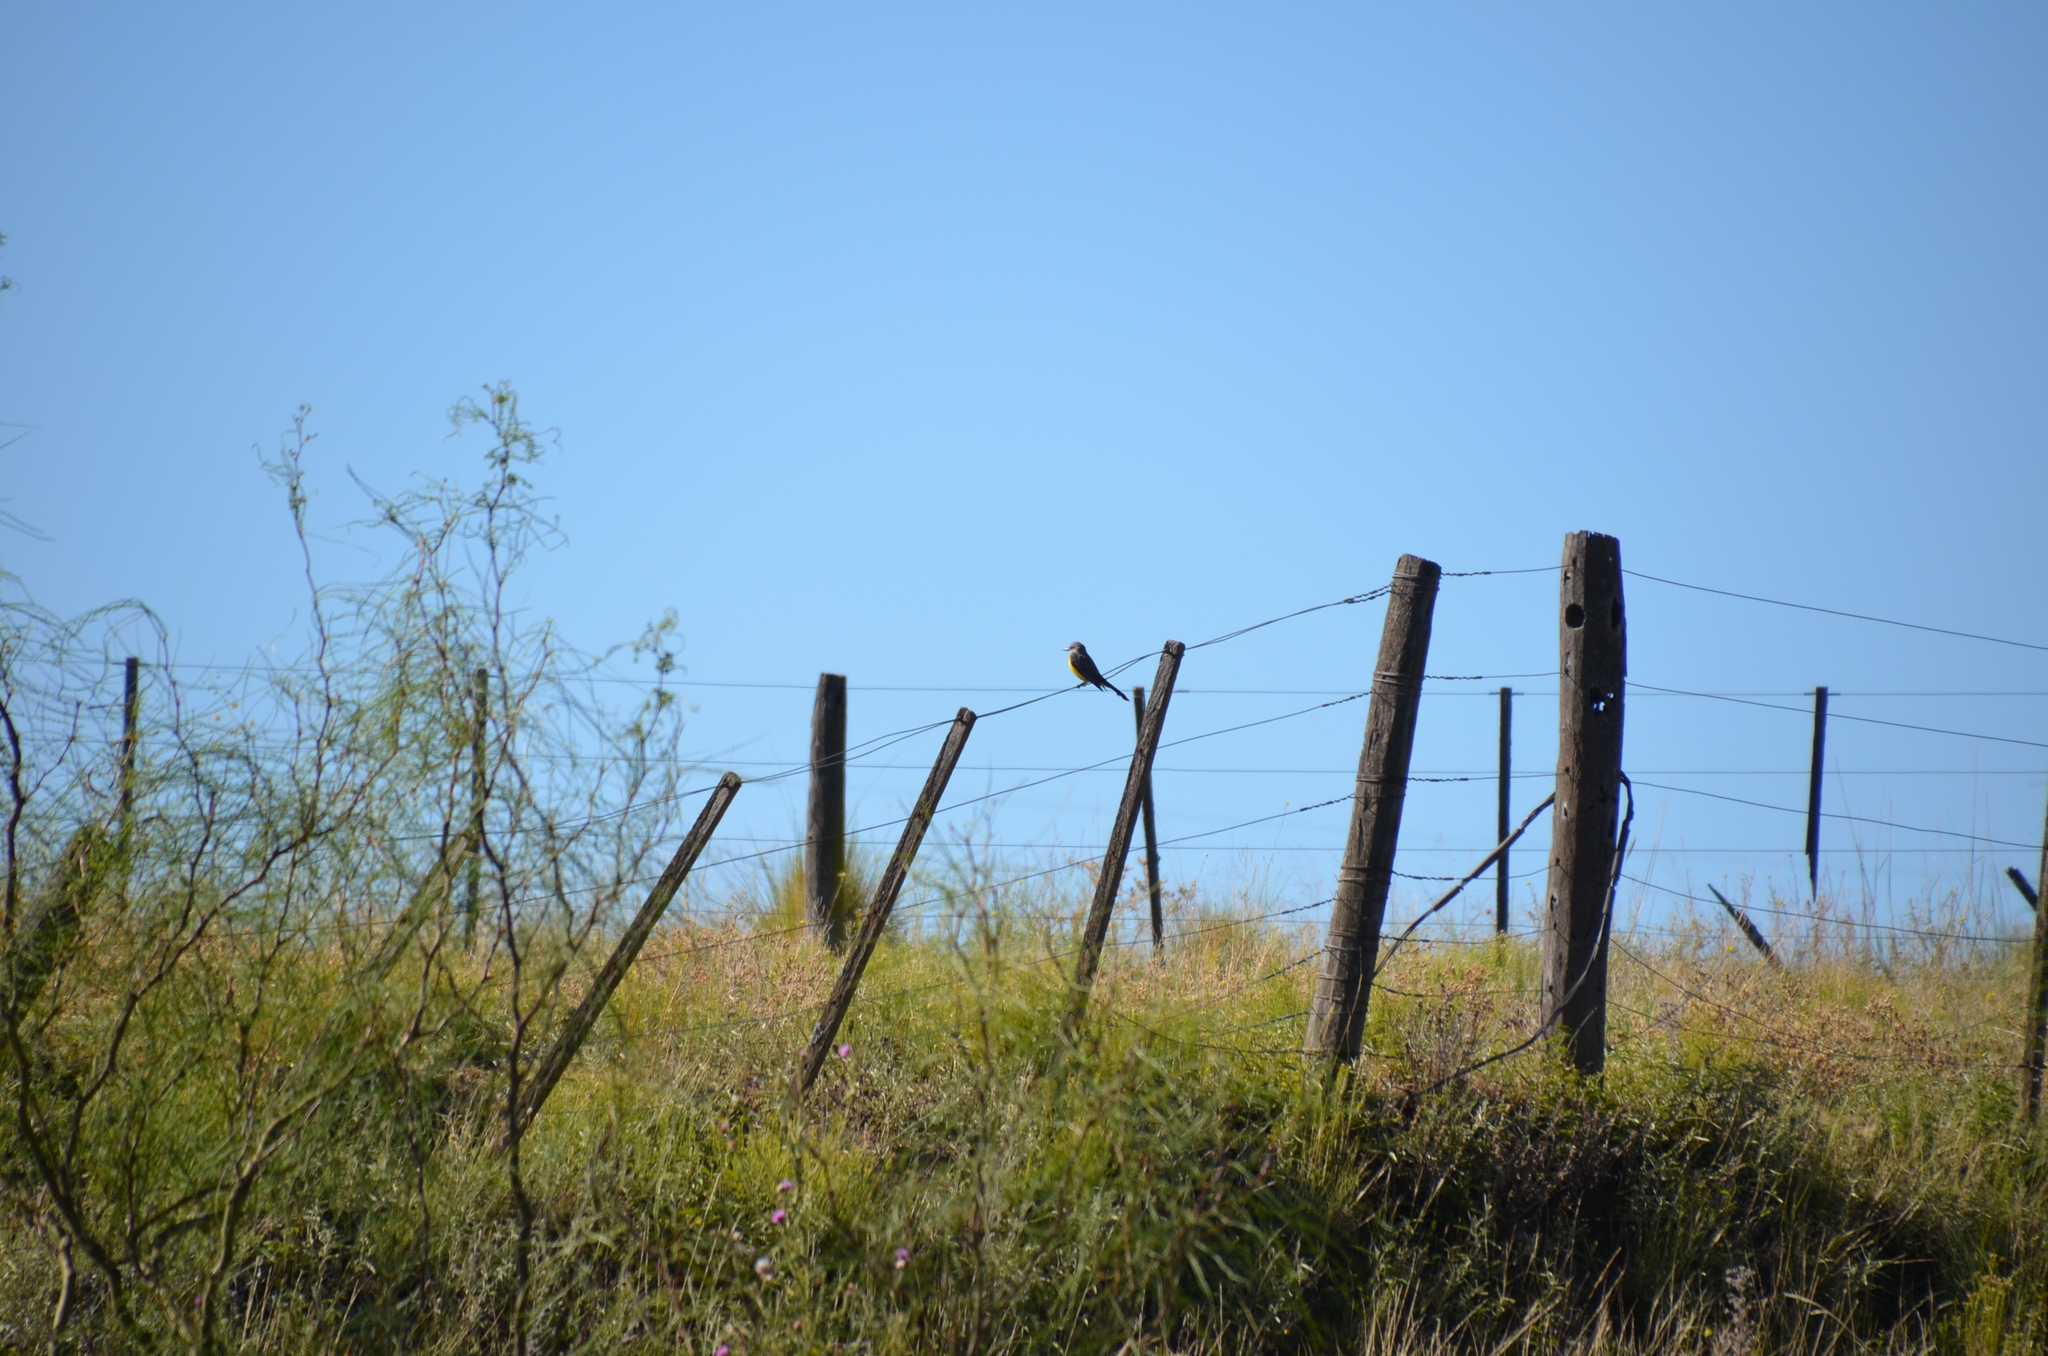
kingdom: Animalia
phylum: Chordata
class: Aves
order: Passeriformes
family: Tyrannidae
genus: Tyrannus
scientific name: Tyrannus melancholicus
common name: Tropical kingbird
